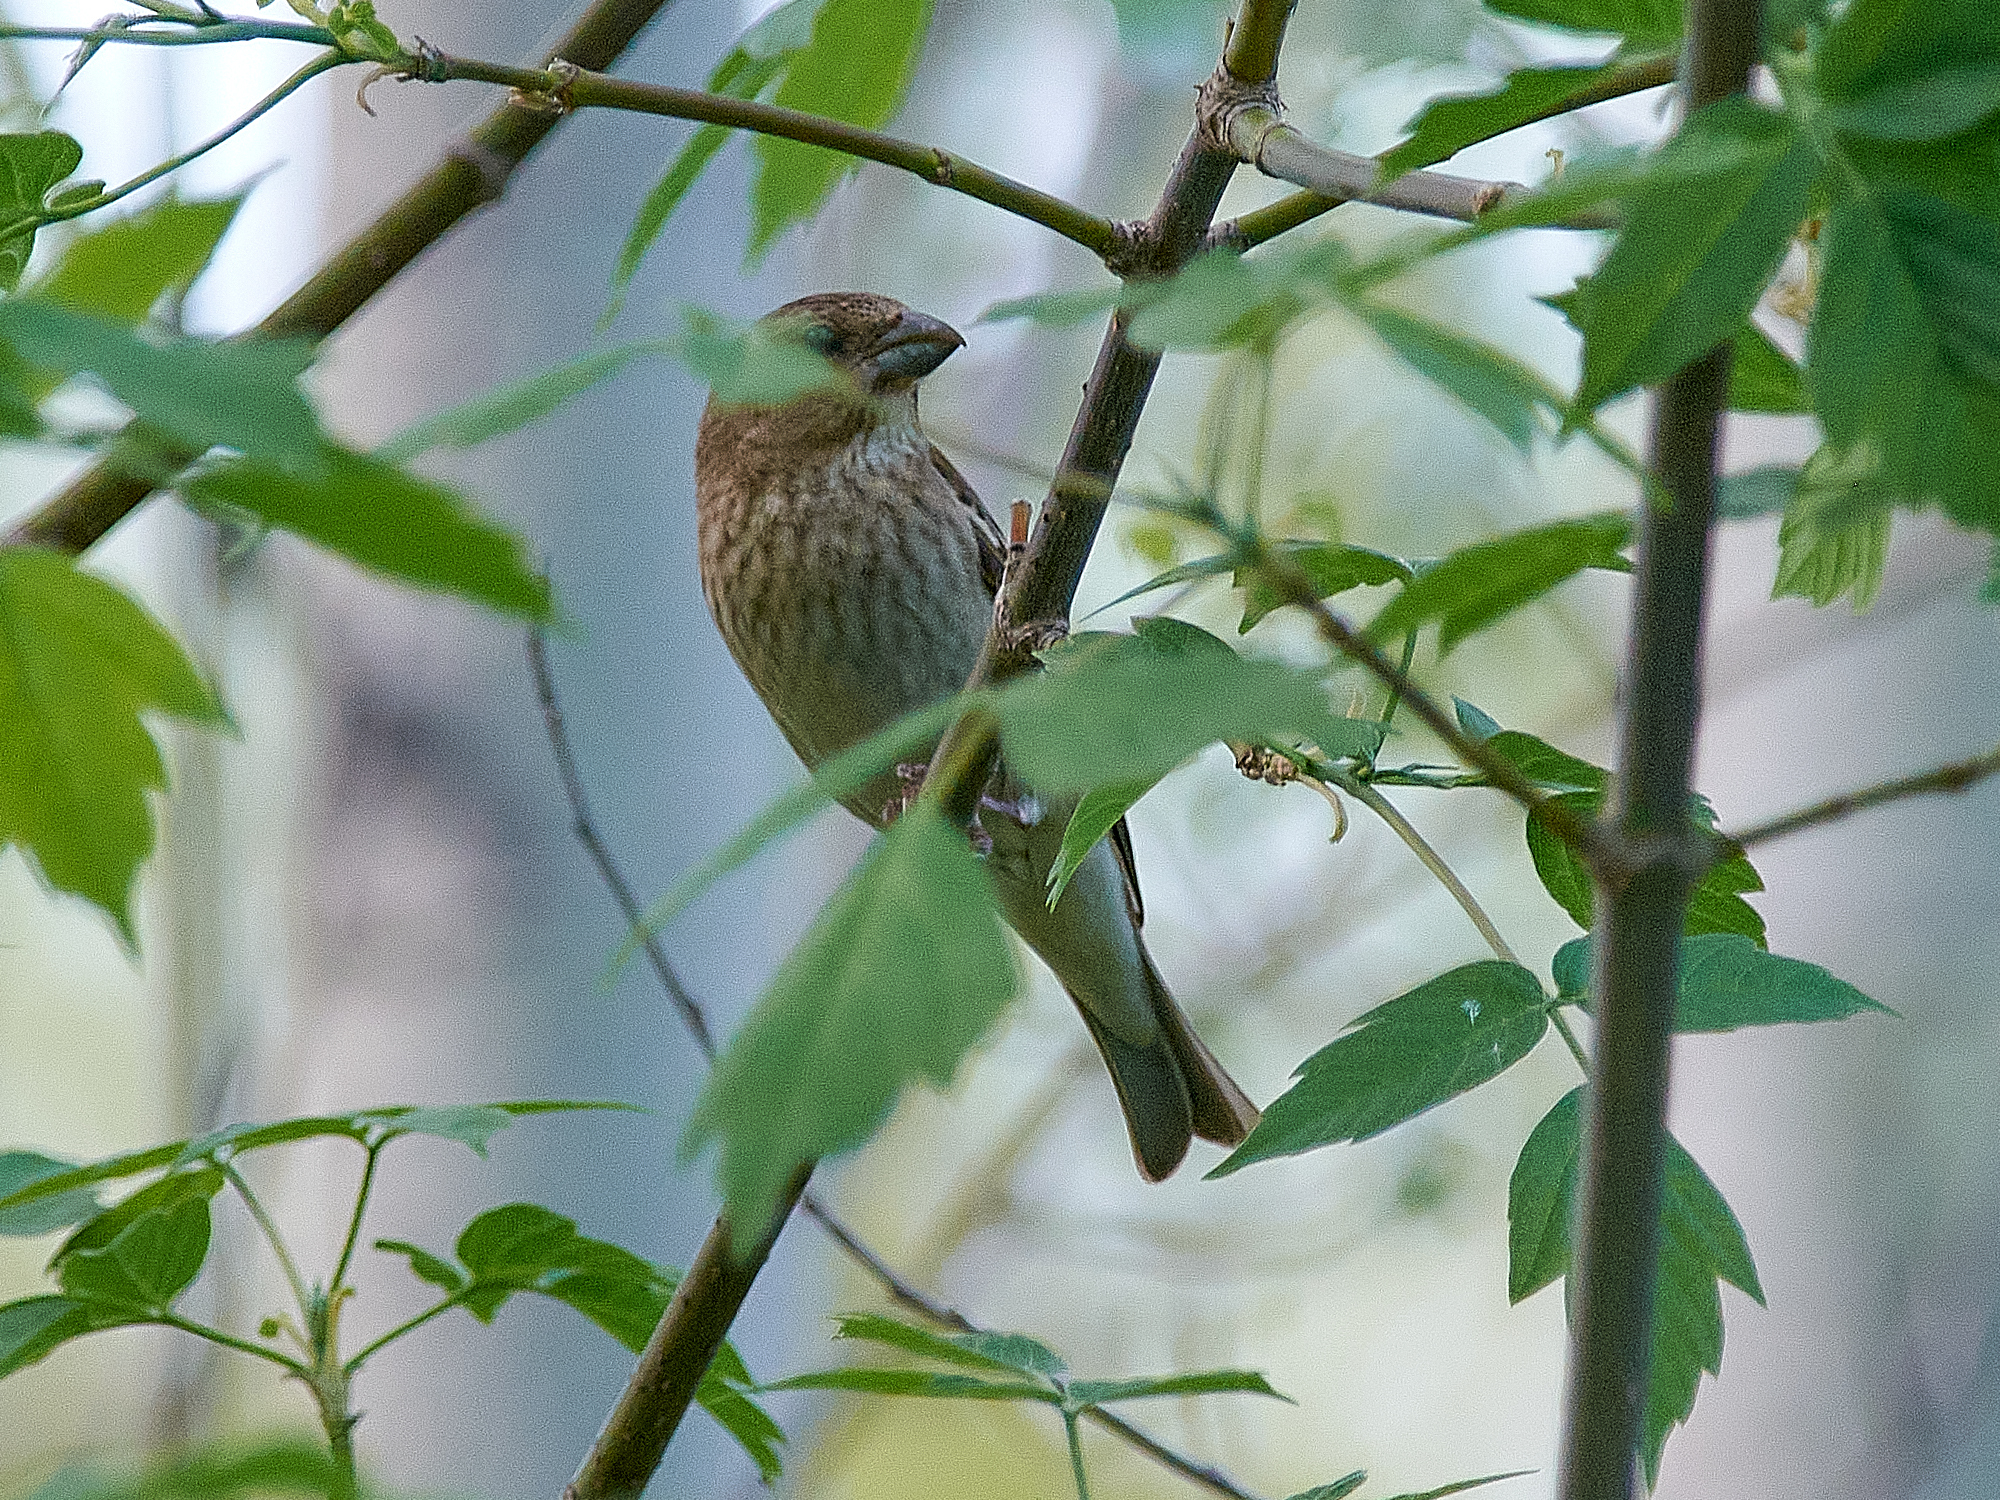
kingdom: Animalia
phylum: Chordata
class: Aves
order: Passeriformes
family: Fringillidae
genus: Carpodacus
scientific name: Carpodacus erythrinus
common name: Common rosefinch
